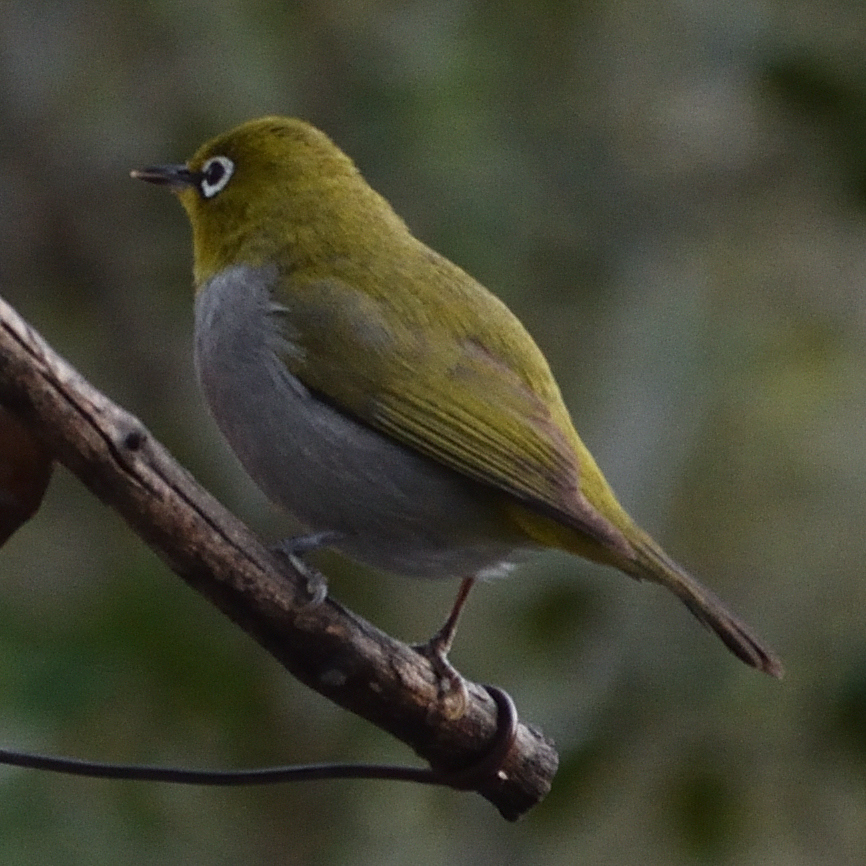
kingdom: Animalia
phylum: Chordata
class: Aves
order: Passeriformes
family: Zosteropidae
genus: Zosterops
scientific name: Zosterops virens
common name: Cape white-eye
